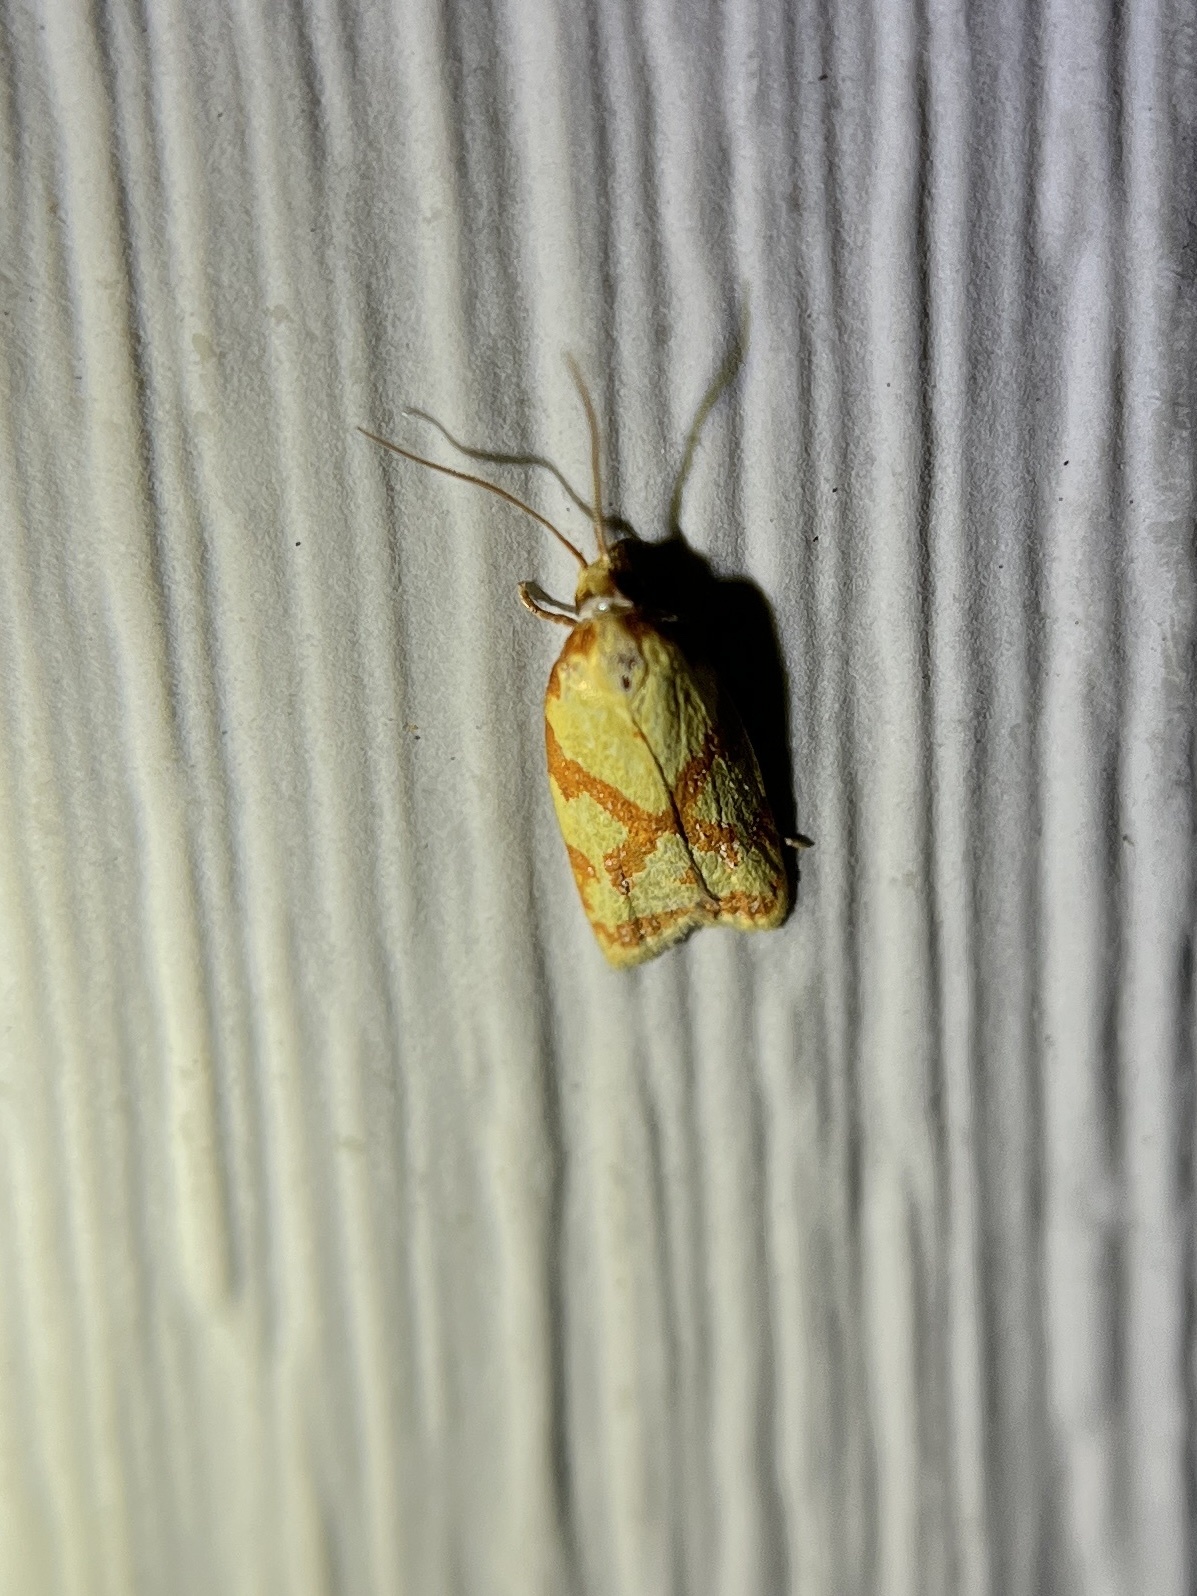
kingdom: Animalia
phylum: Arthropoda
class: Insecta
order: Lepidoptera
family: Tortricidae
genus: Sparganothis
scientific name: Sparganothis sulfureana
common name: Sparganothis fruitworm moth
